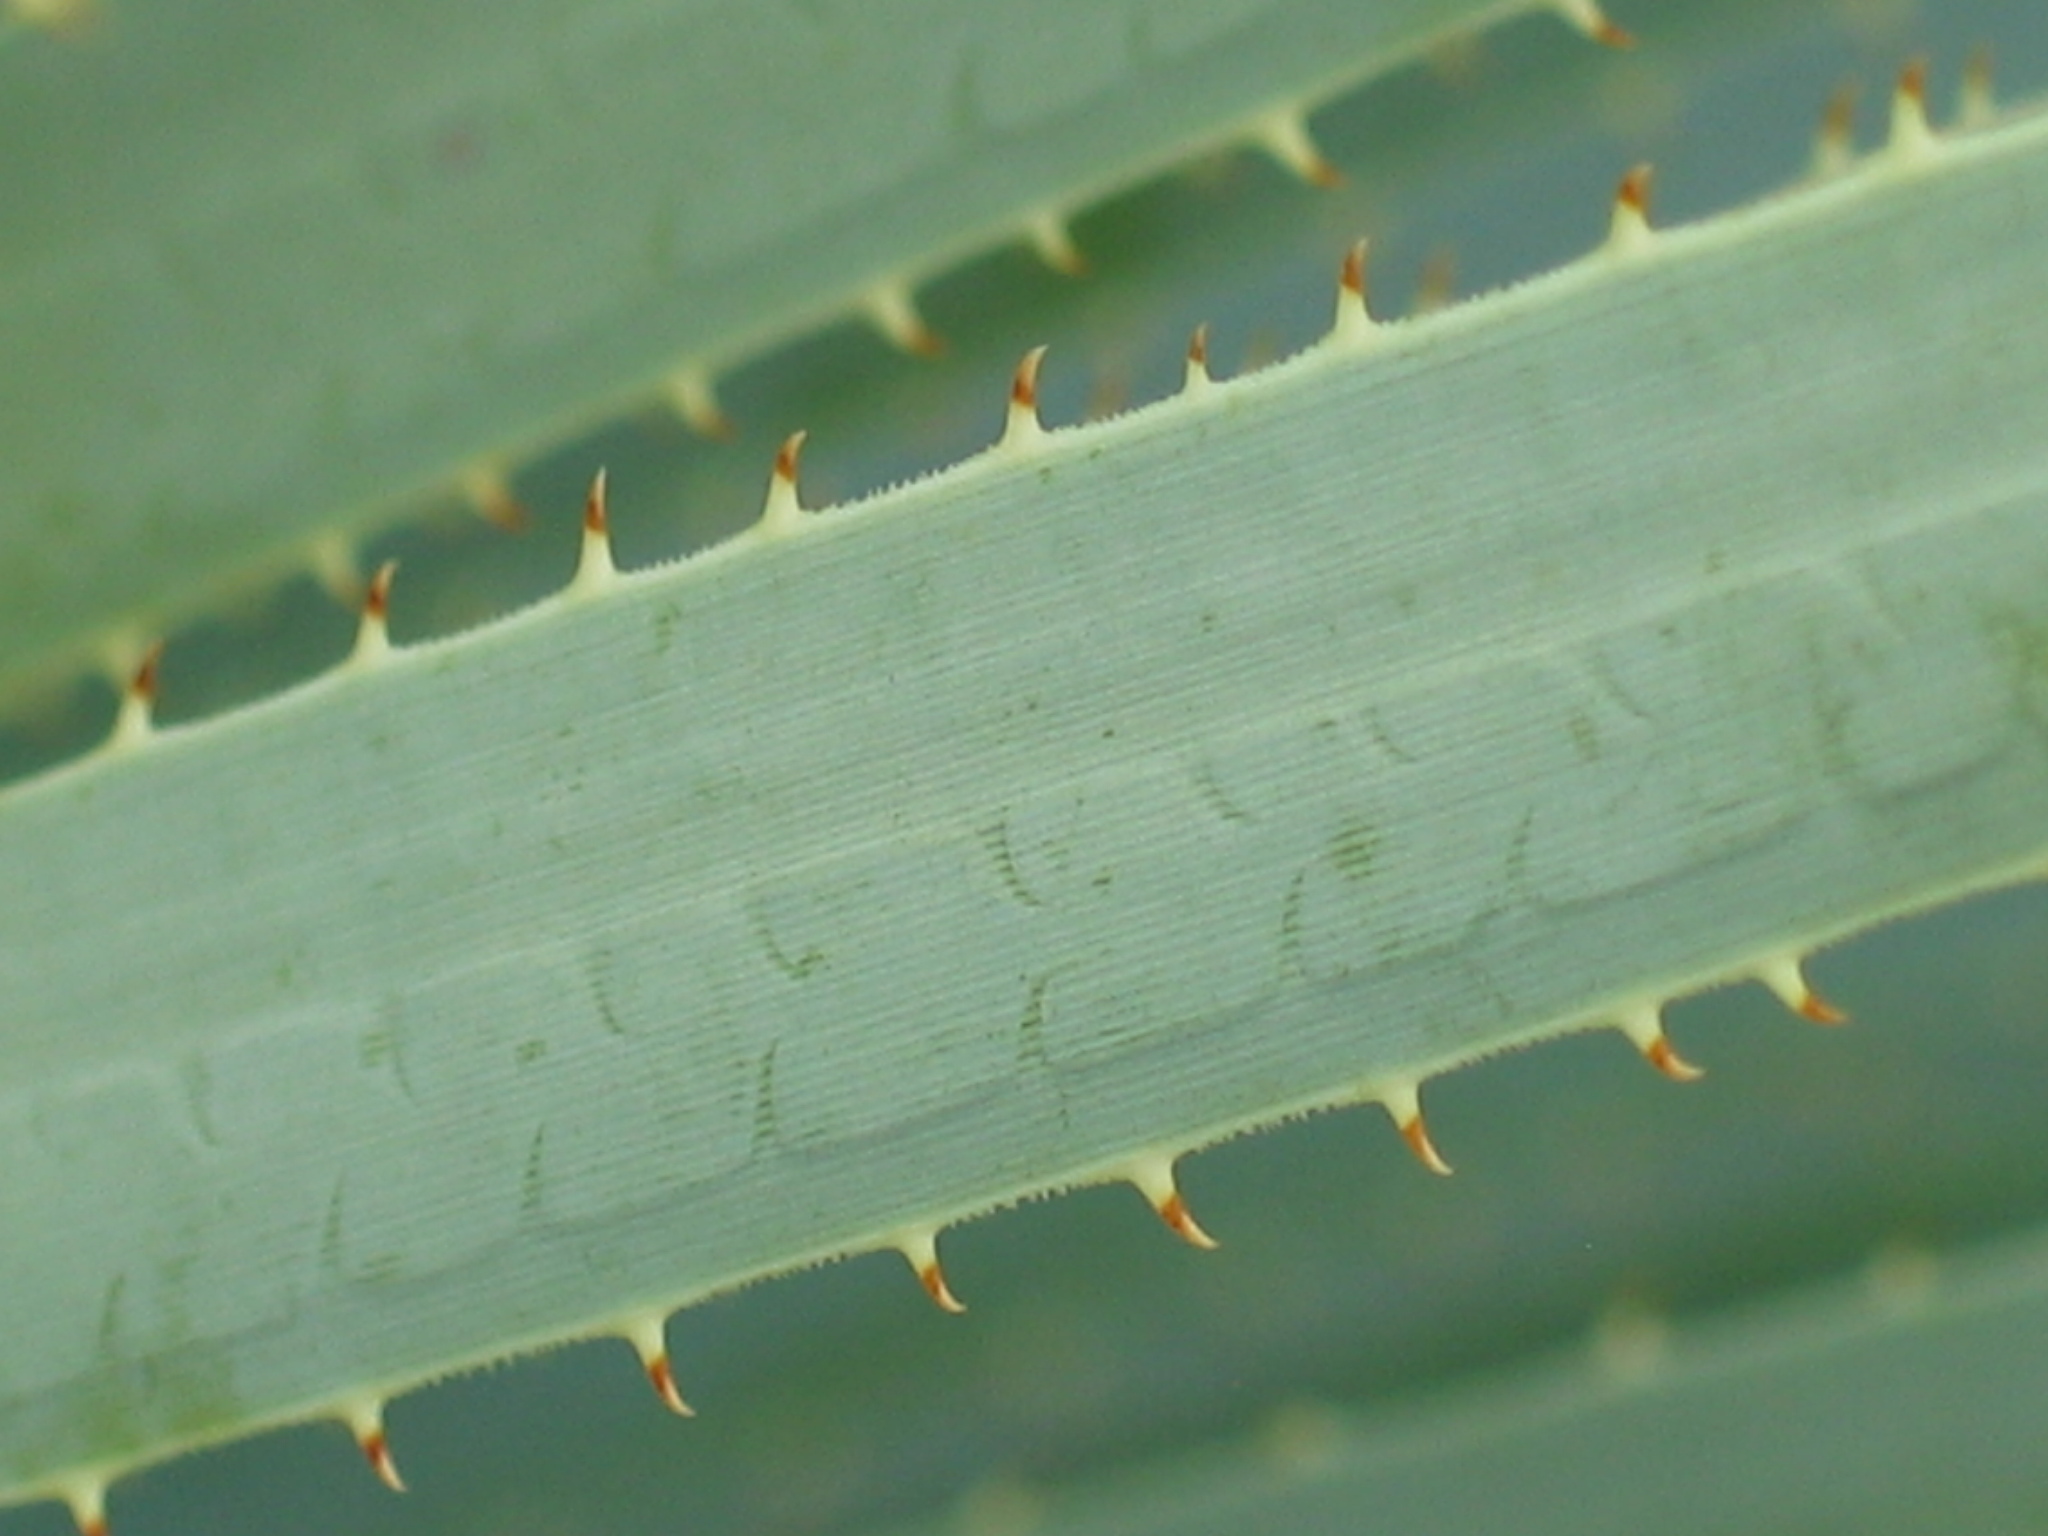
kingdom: Plantae
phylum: Tracheophyta
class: Liliopsida
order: Asparagales
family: Asparagaceae
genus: Dasylirion
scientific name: Dasylirion wheeleri
